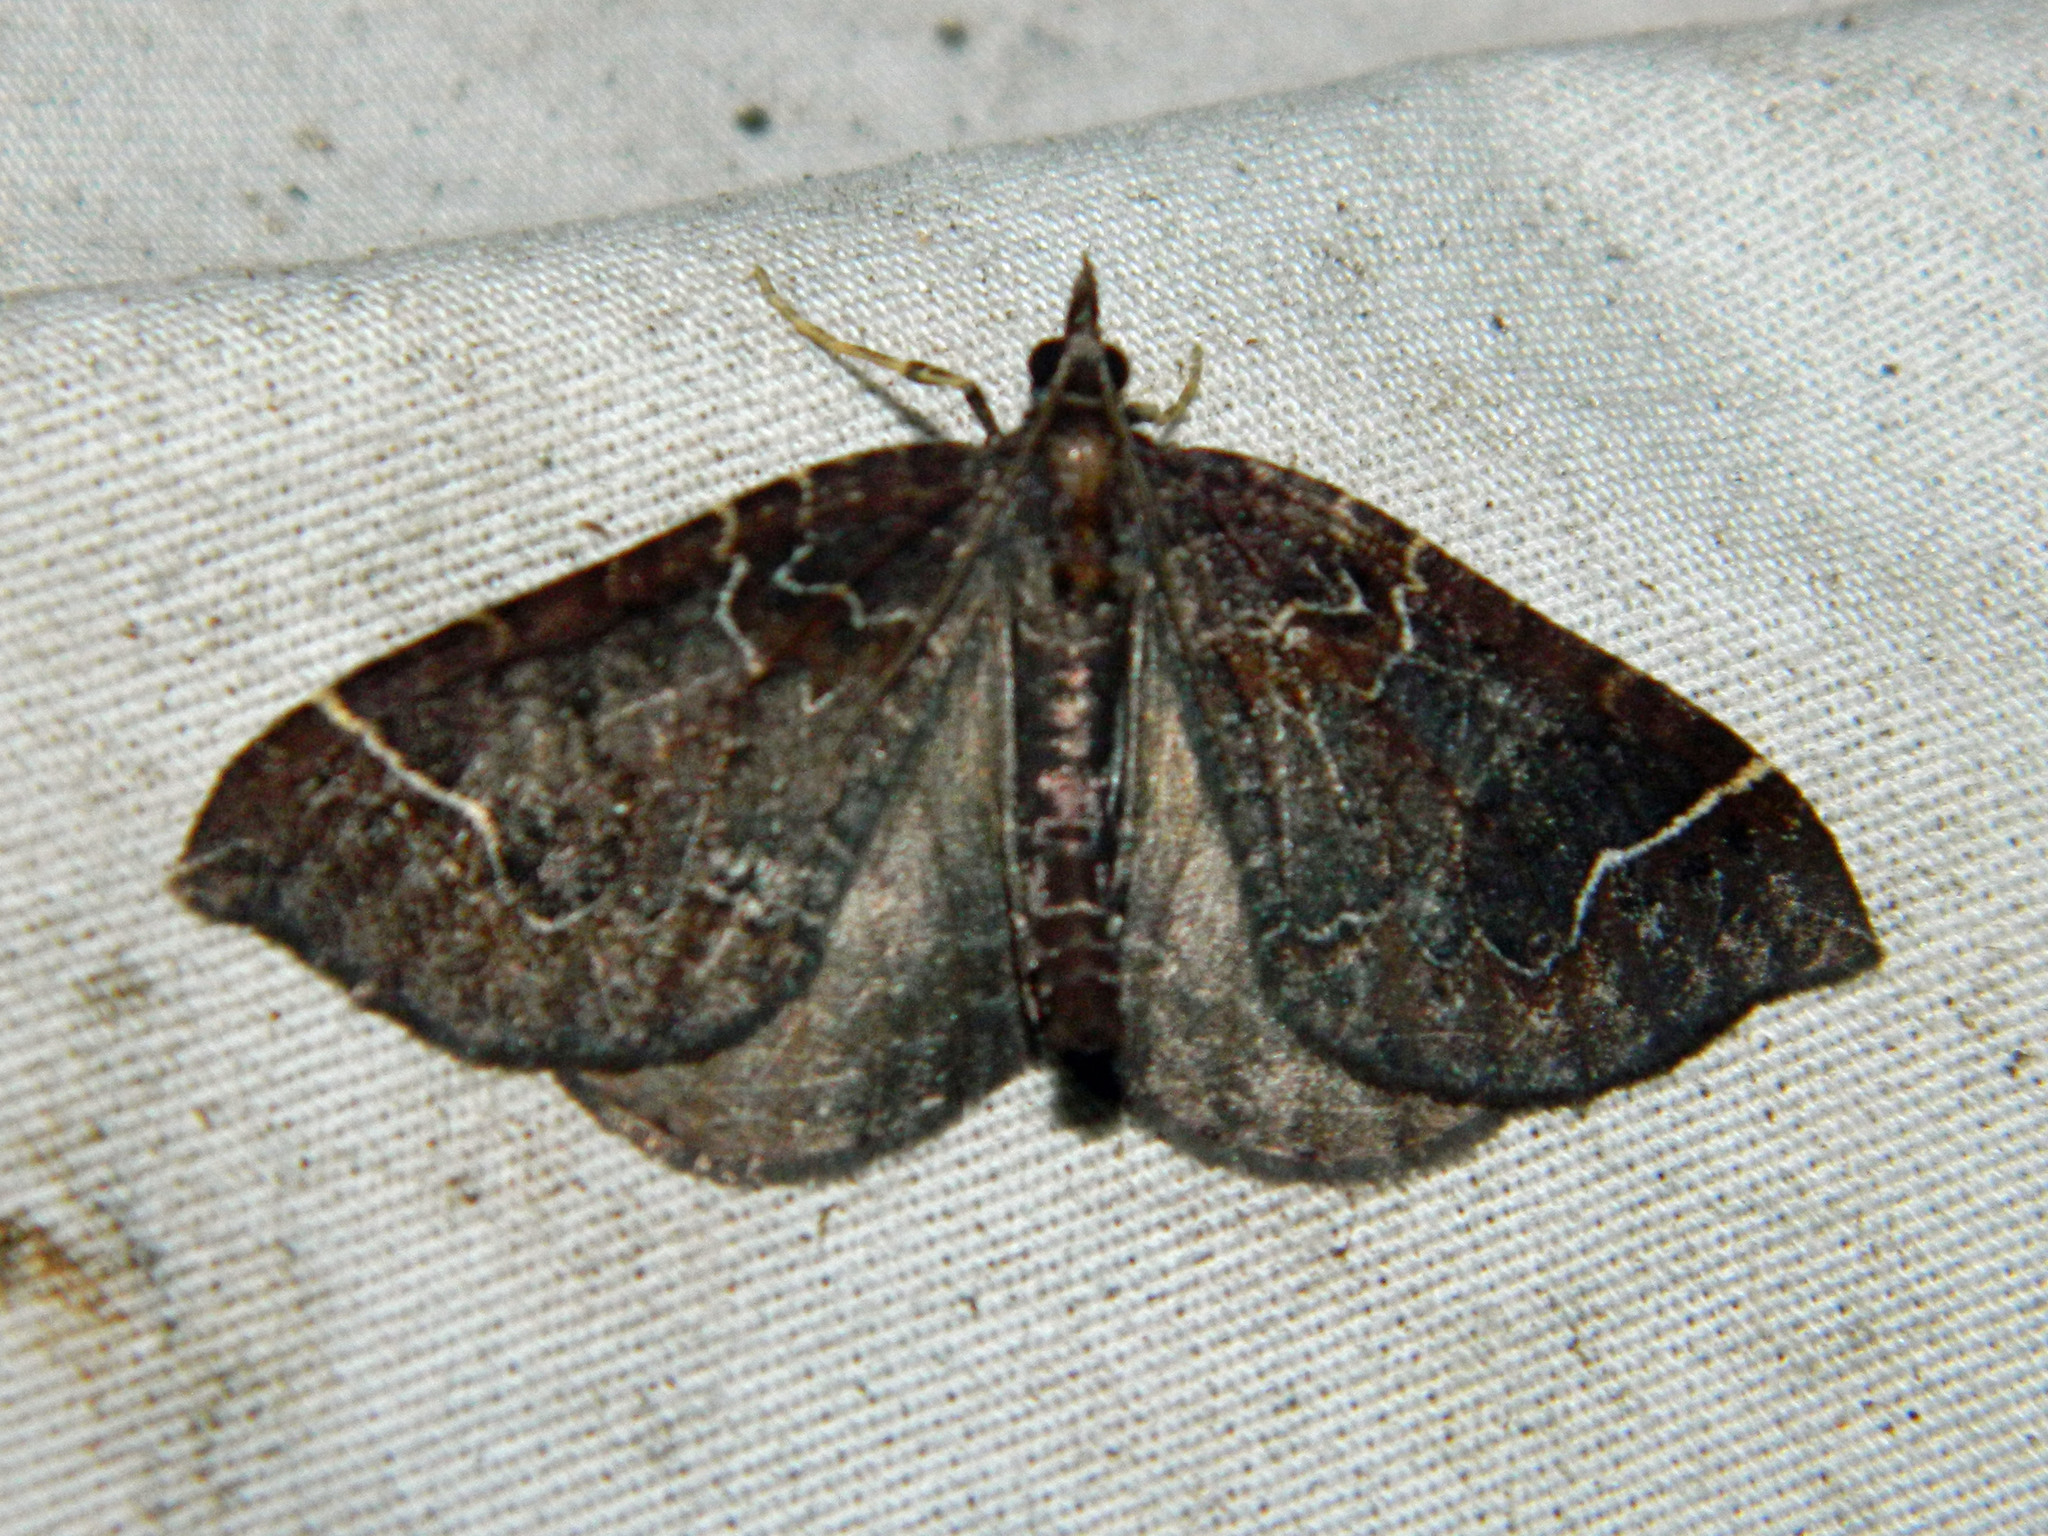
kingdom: Animalia
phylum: Arthropoda
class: Insecta
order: Lepidoptera
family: Geometridae
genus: Eulithis
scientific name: Eulithis flavibrunneata
